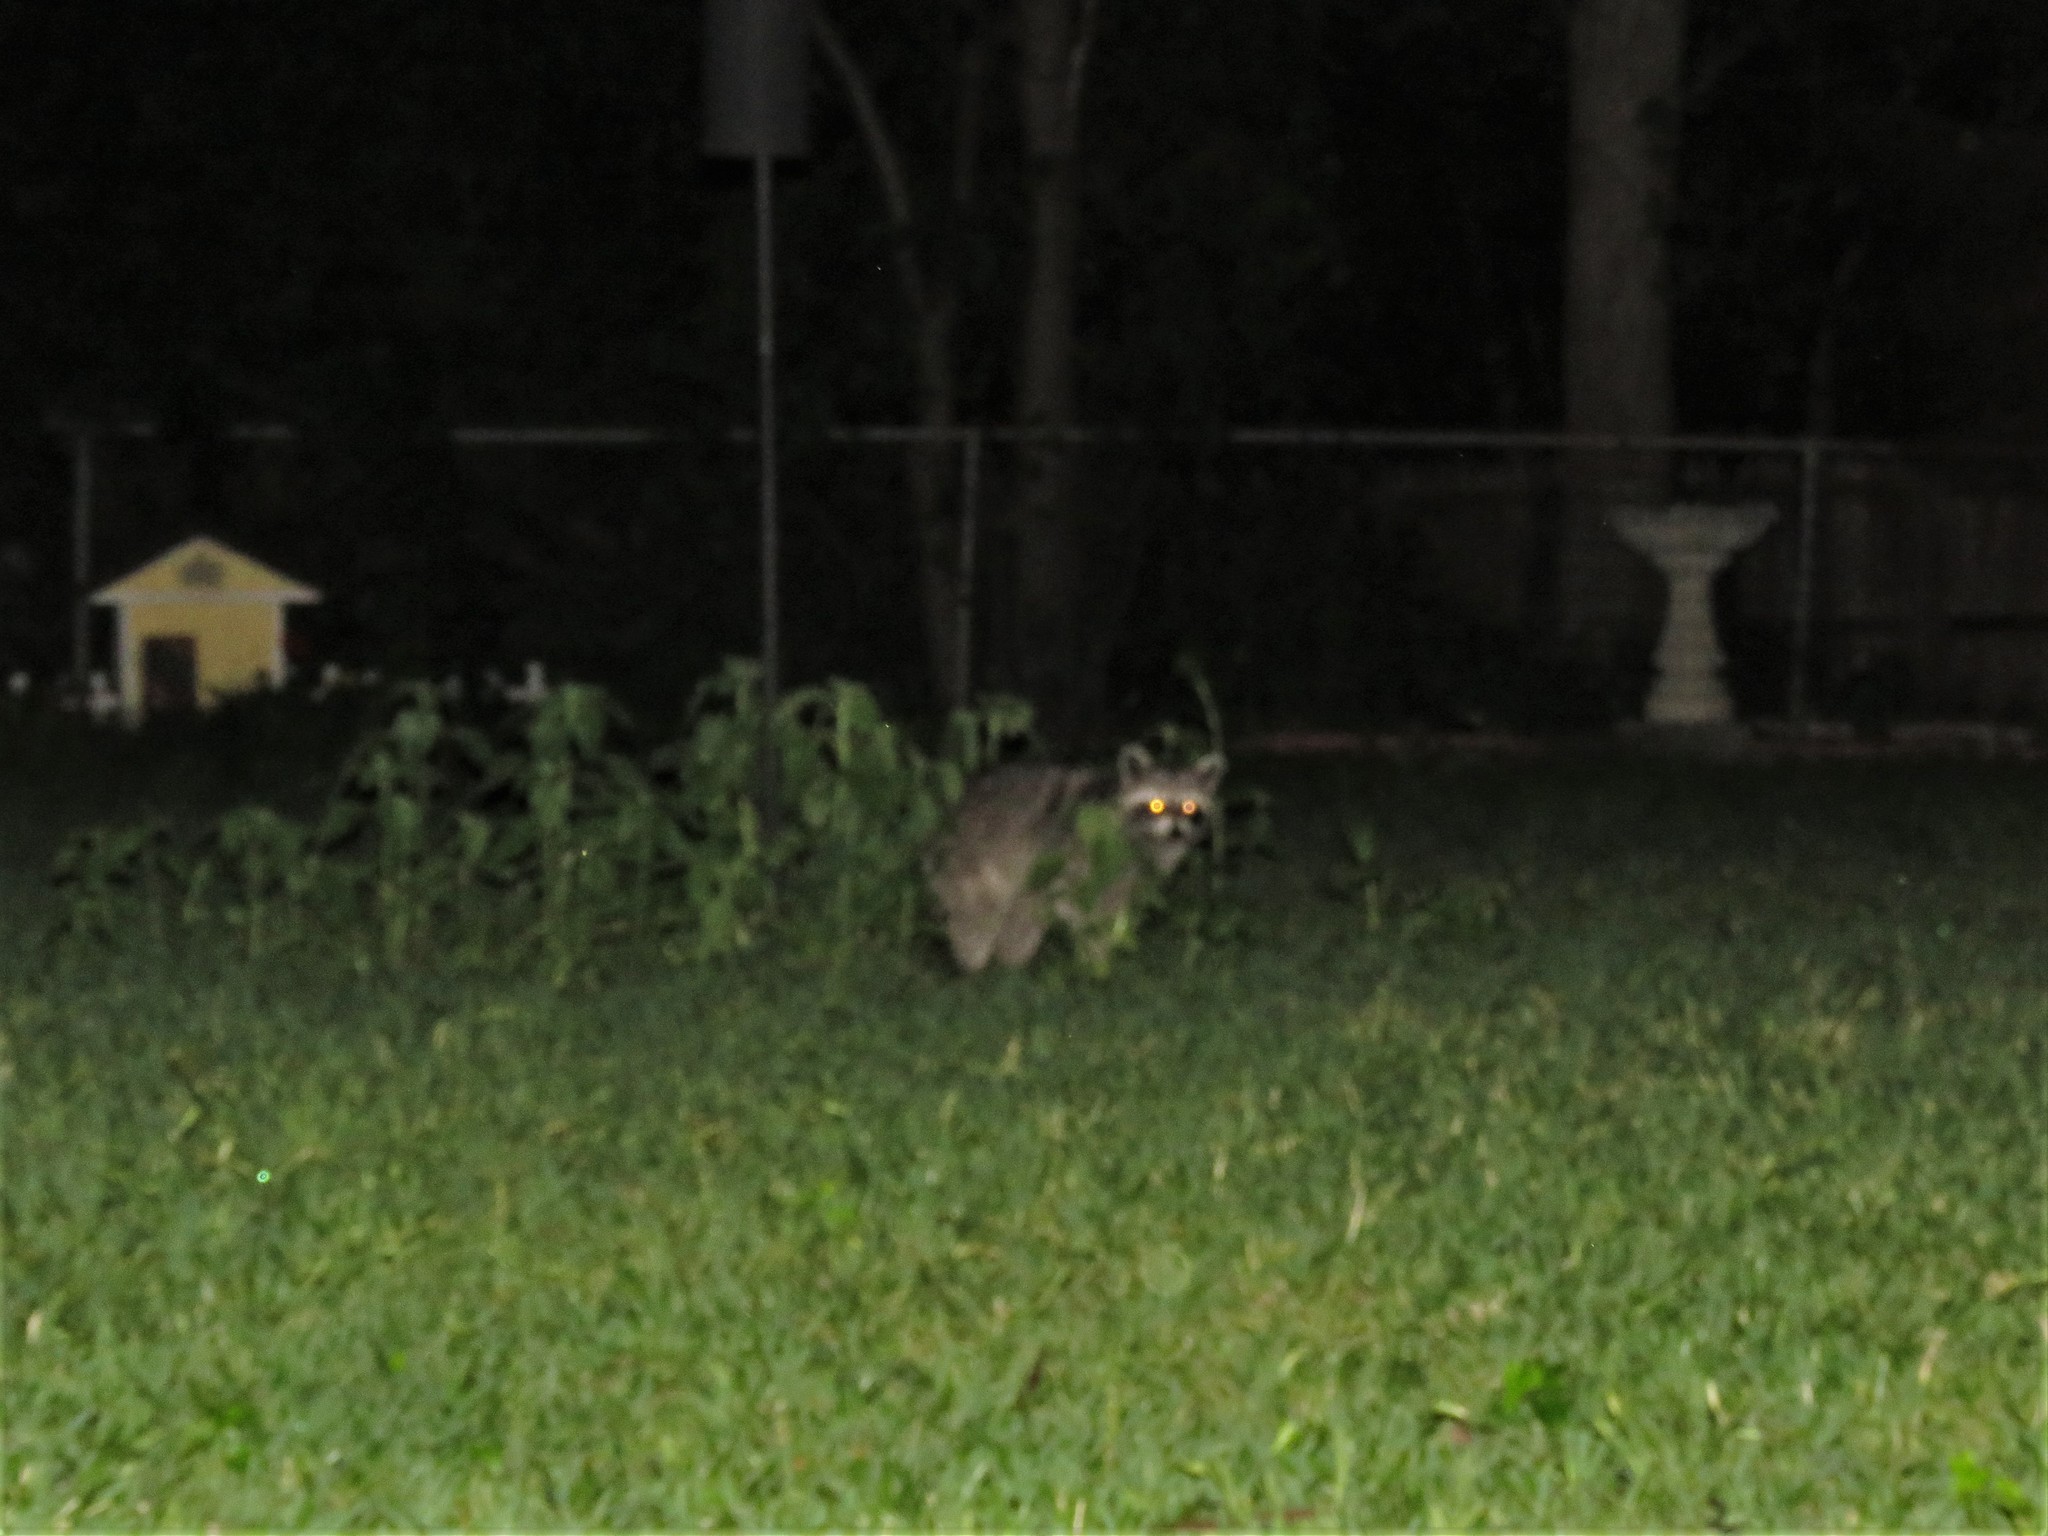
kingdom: Animalia
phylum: Chordata
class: Mammalia
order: Carnivora
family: Procyonidae
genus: Procyon
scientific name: Procyon lotor
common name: Raccoon
